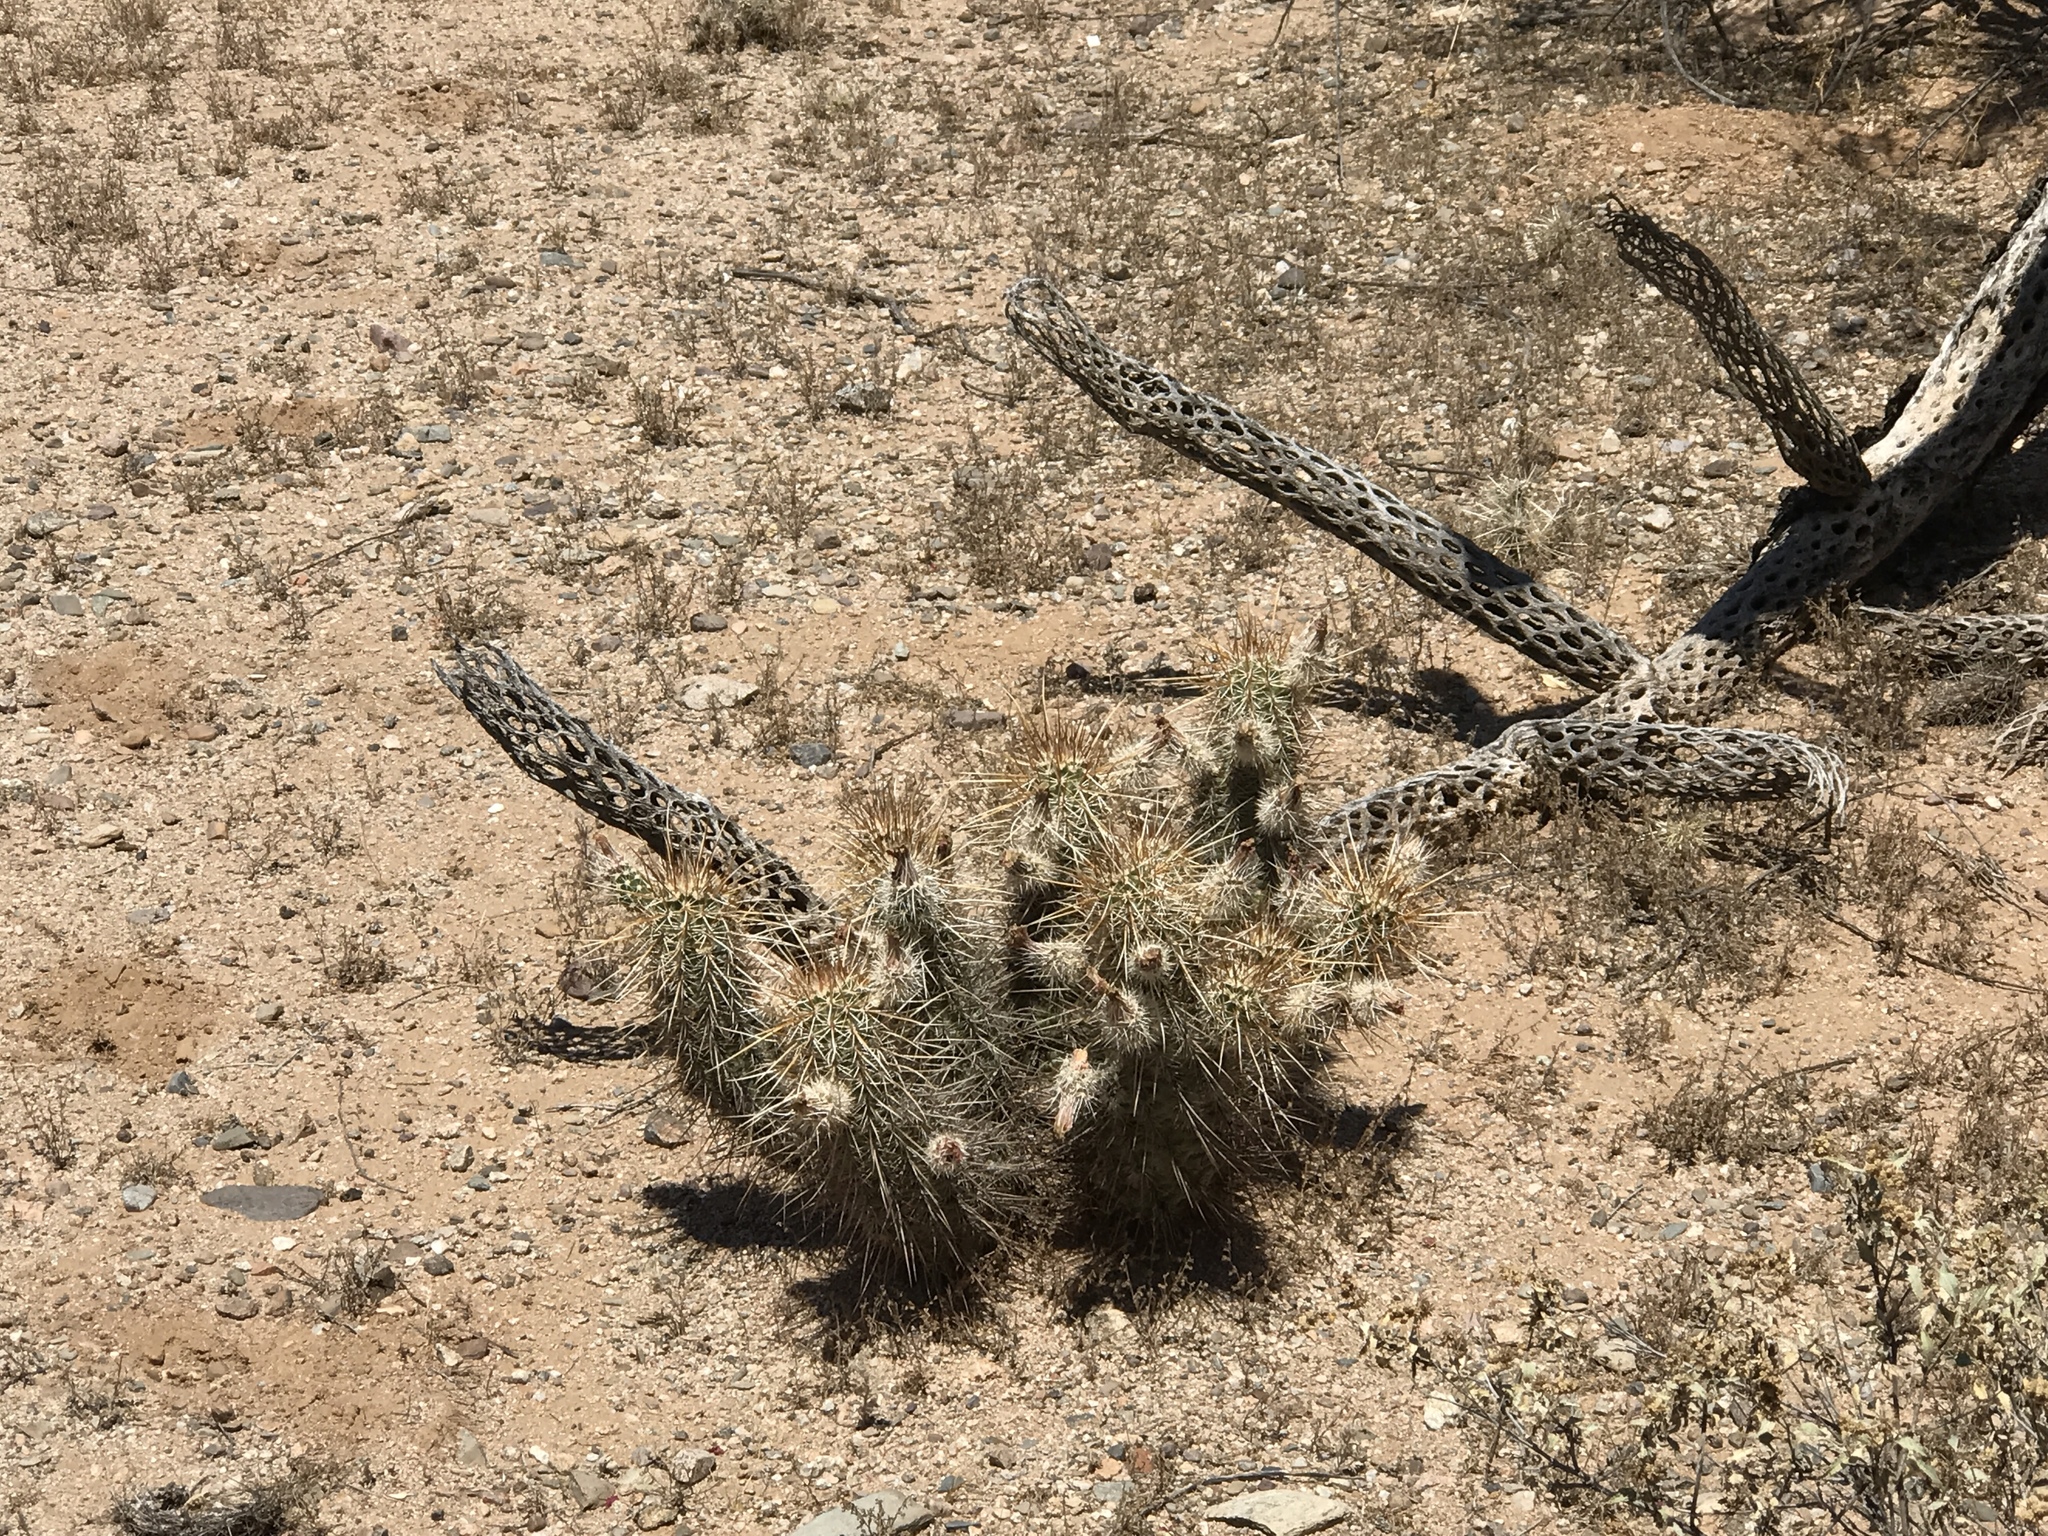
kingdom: Plantae
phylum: Tracheophyta
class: Magnoliopsida
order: Caryophyllales
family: Cactaceae
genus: Echinocereus
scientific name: Echinocereus engelmannii
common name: Engelmann's hedgehog cactus
